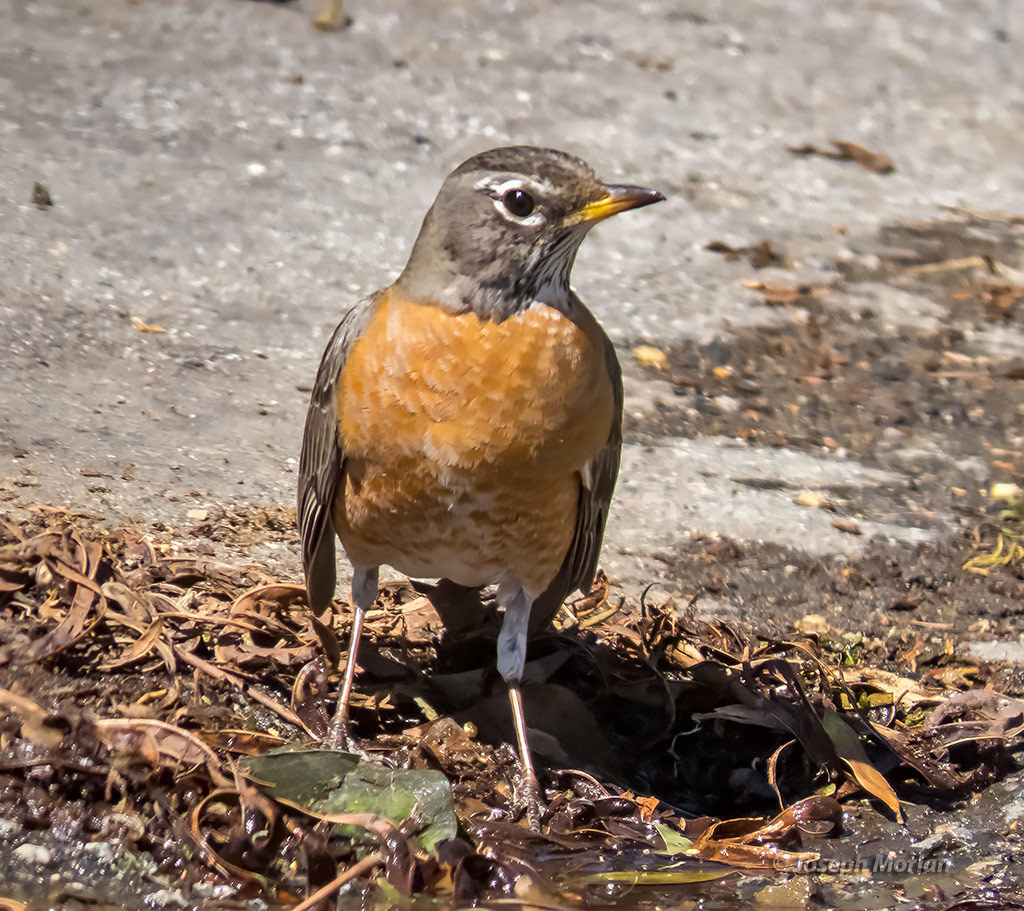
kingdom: Animalia
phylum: Chordata
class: Aves
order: Passeriformes
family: Turdidae
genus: Turdus
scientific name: Turdus migratorius
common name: American robin
